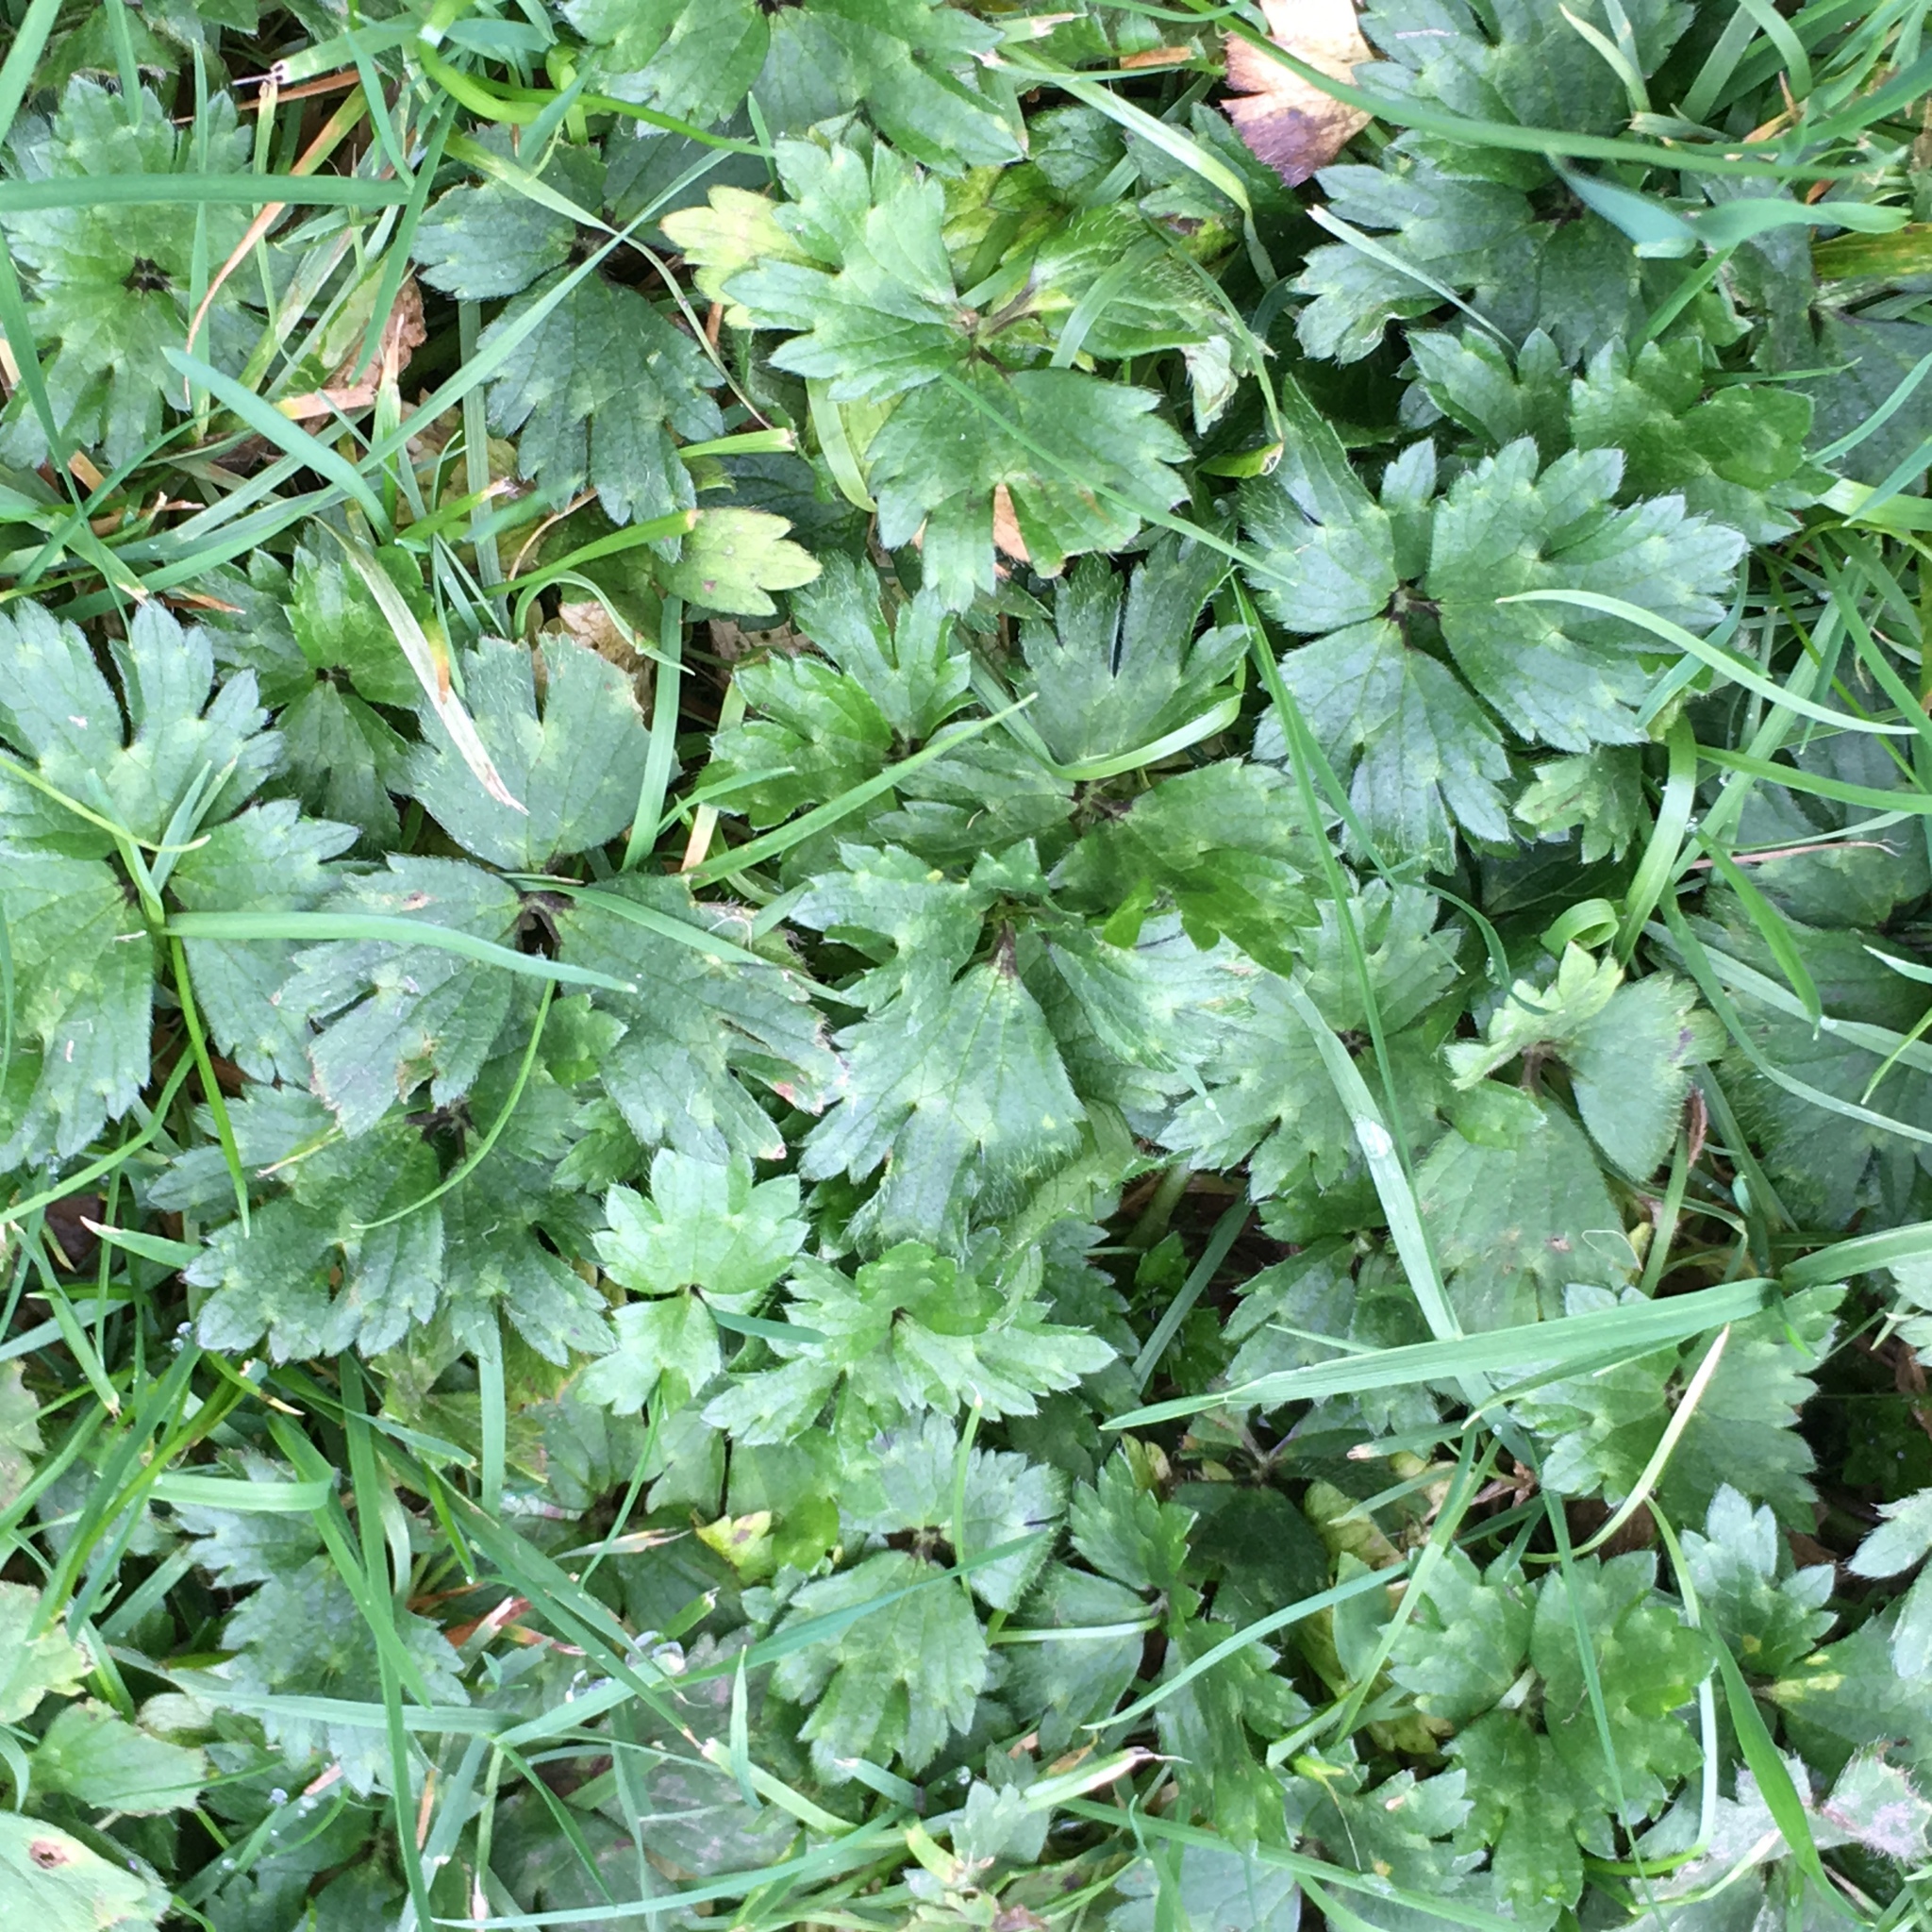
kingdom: Plantae
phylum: Tracheophyta
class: Magnoliopsida
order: Ranunculales
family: Ranunculaceae
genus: Ranunculus
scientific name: Ranunculus repens
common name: Creeping buttercup
